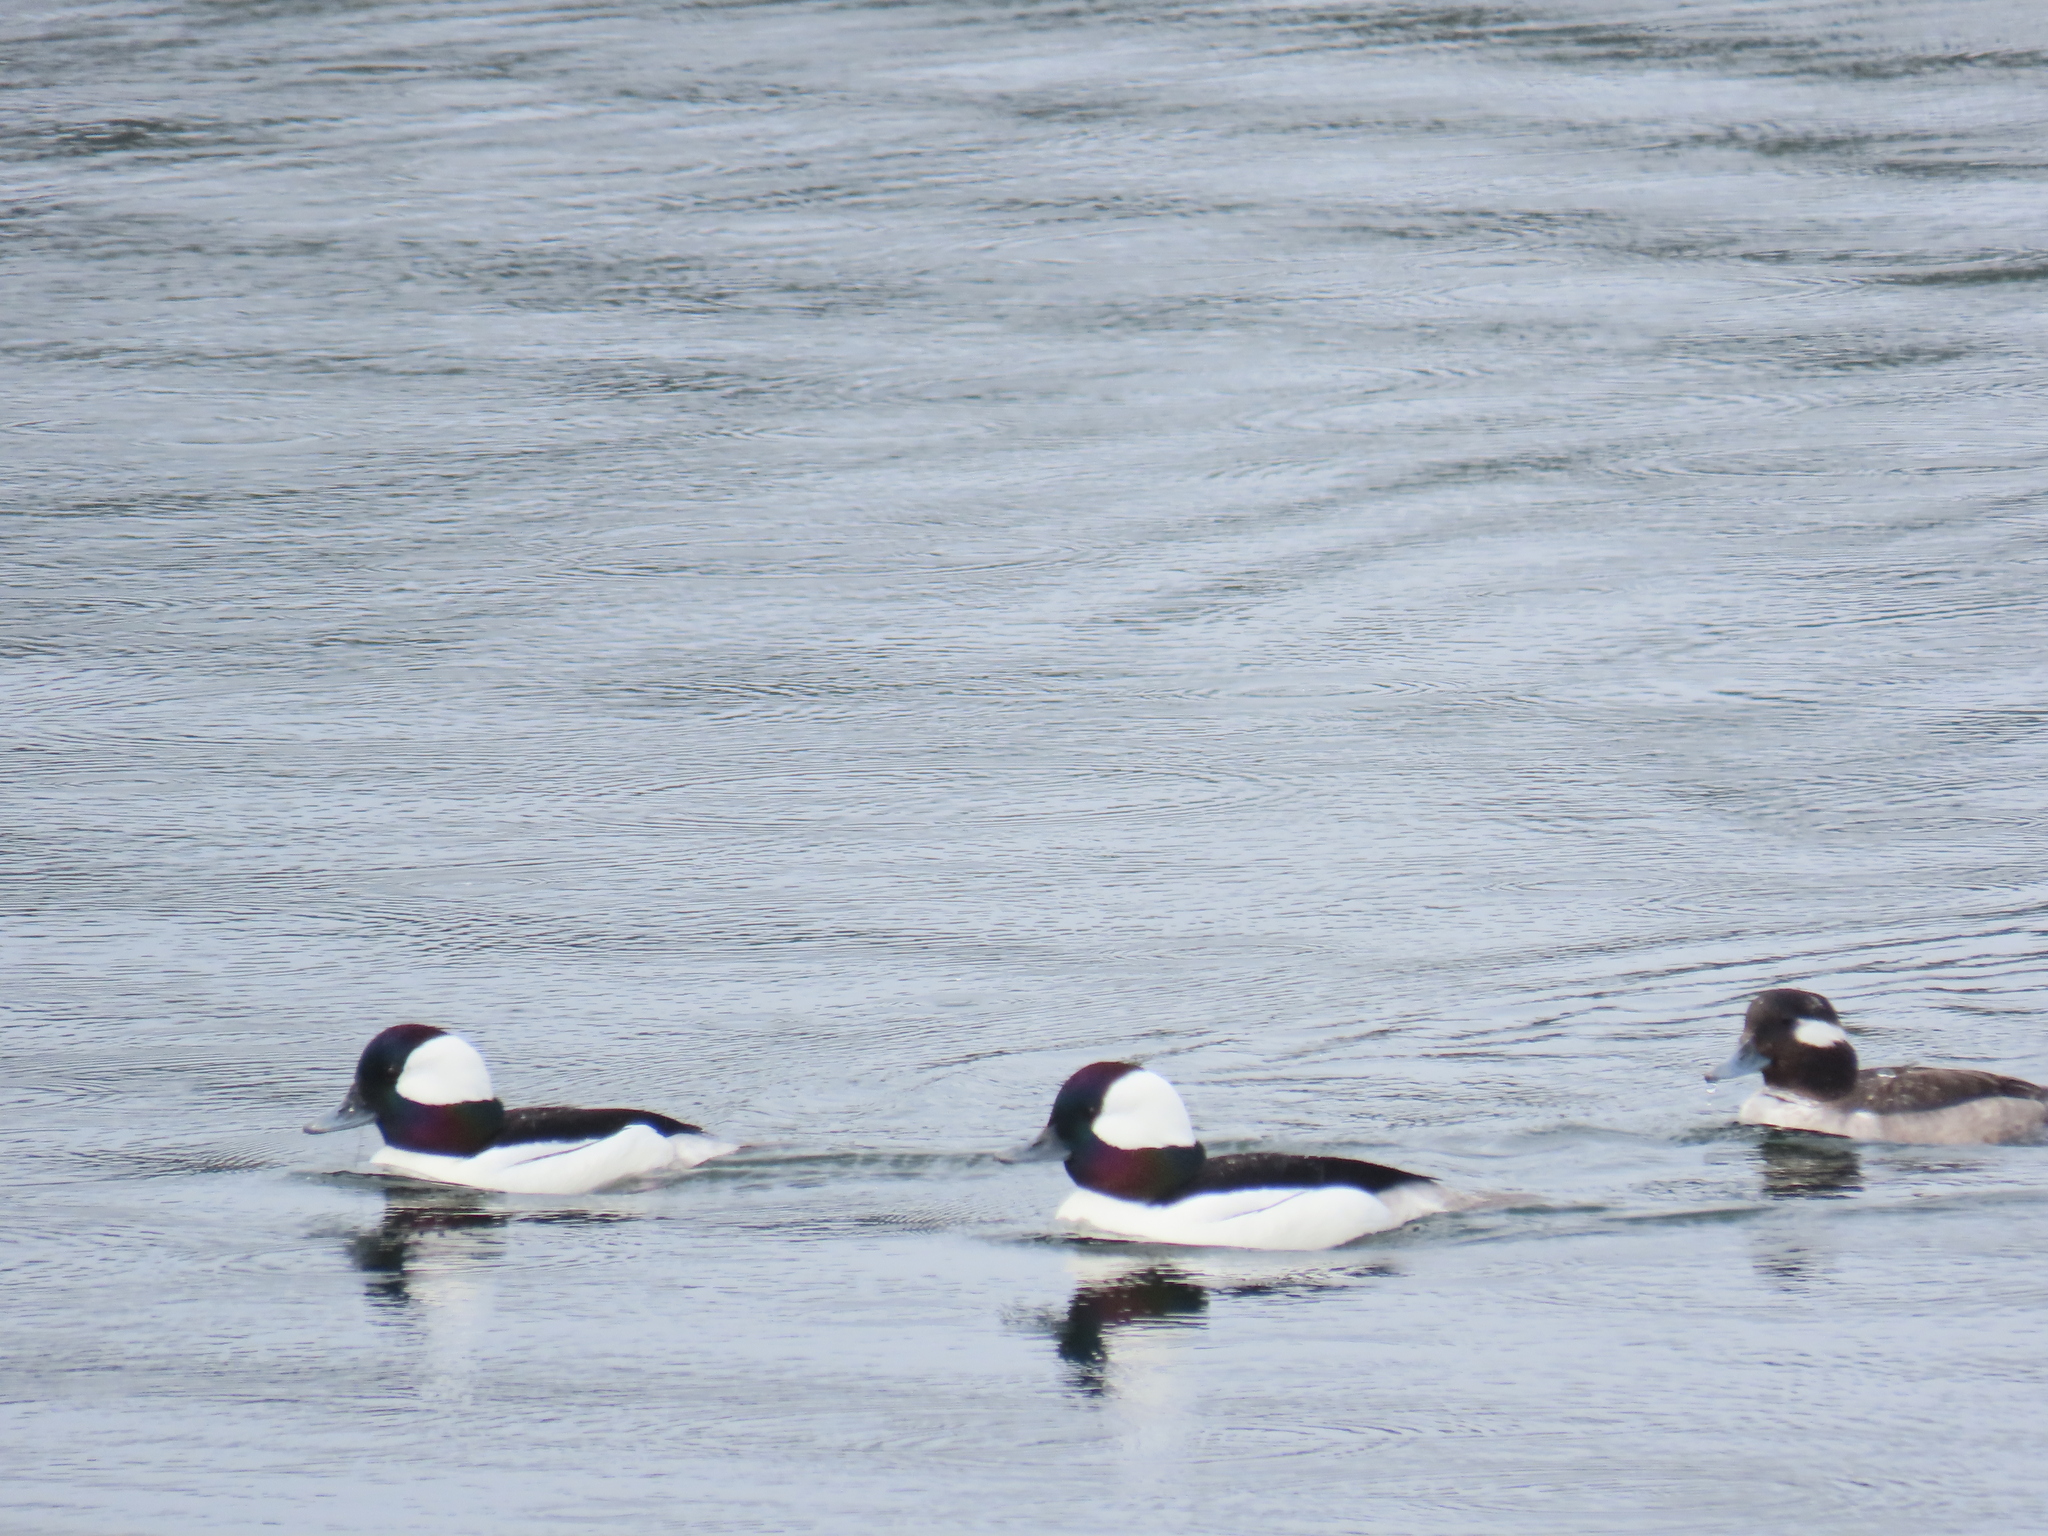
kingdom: Animalia
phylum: Chordata
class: Aves
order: Anseriformes
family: Anatidae
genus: Bucephala
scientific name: Bucephala albeola
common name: Bufflehead
